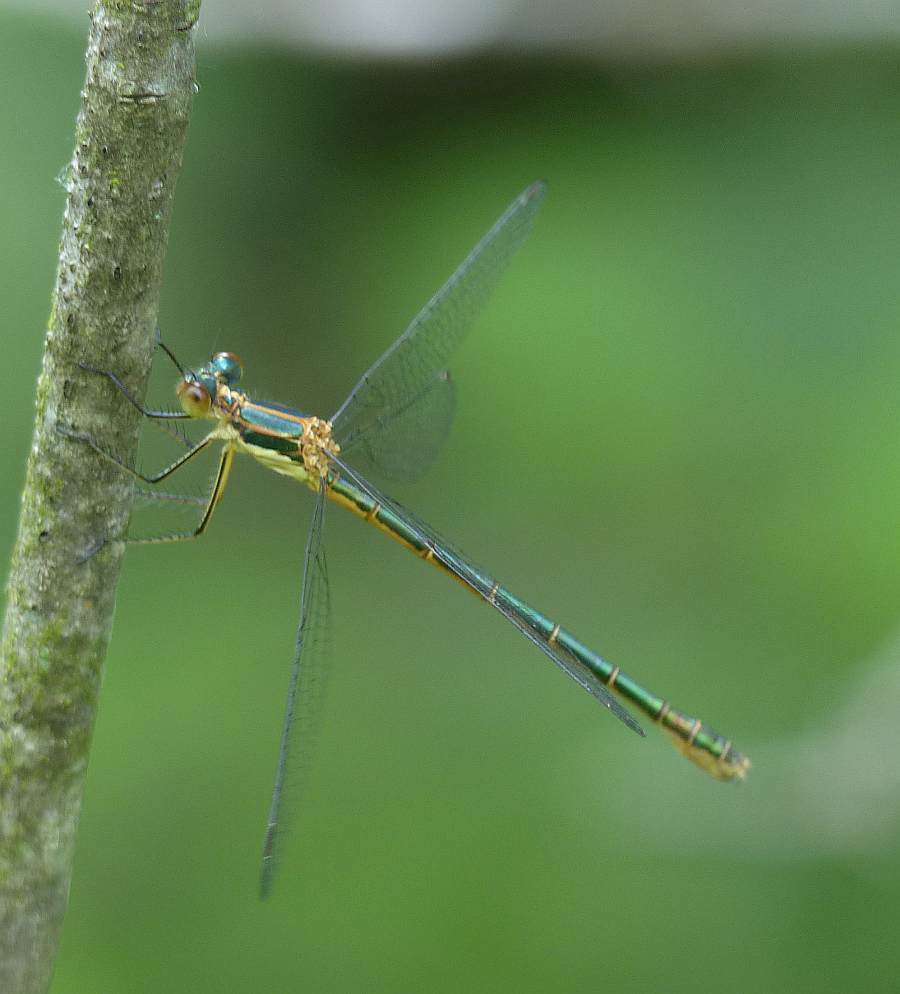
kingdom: Animalia
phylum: Arthropoda
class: Insecta
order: Odonata
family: Lestidae
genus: Lestes
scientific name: Lestes dryas
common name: Scarce emerald damselfly
